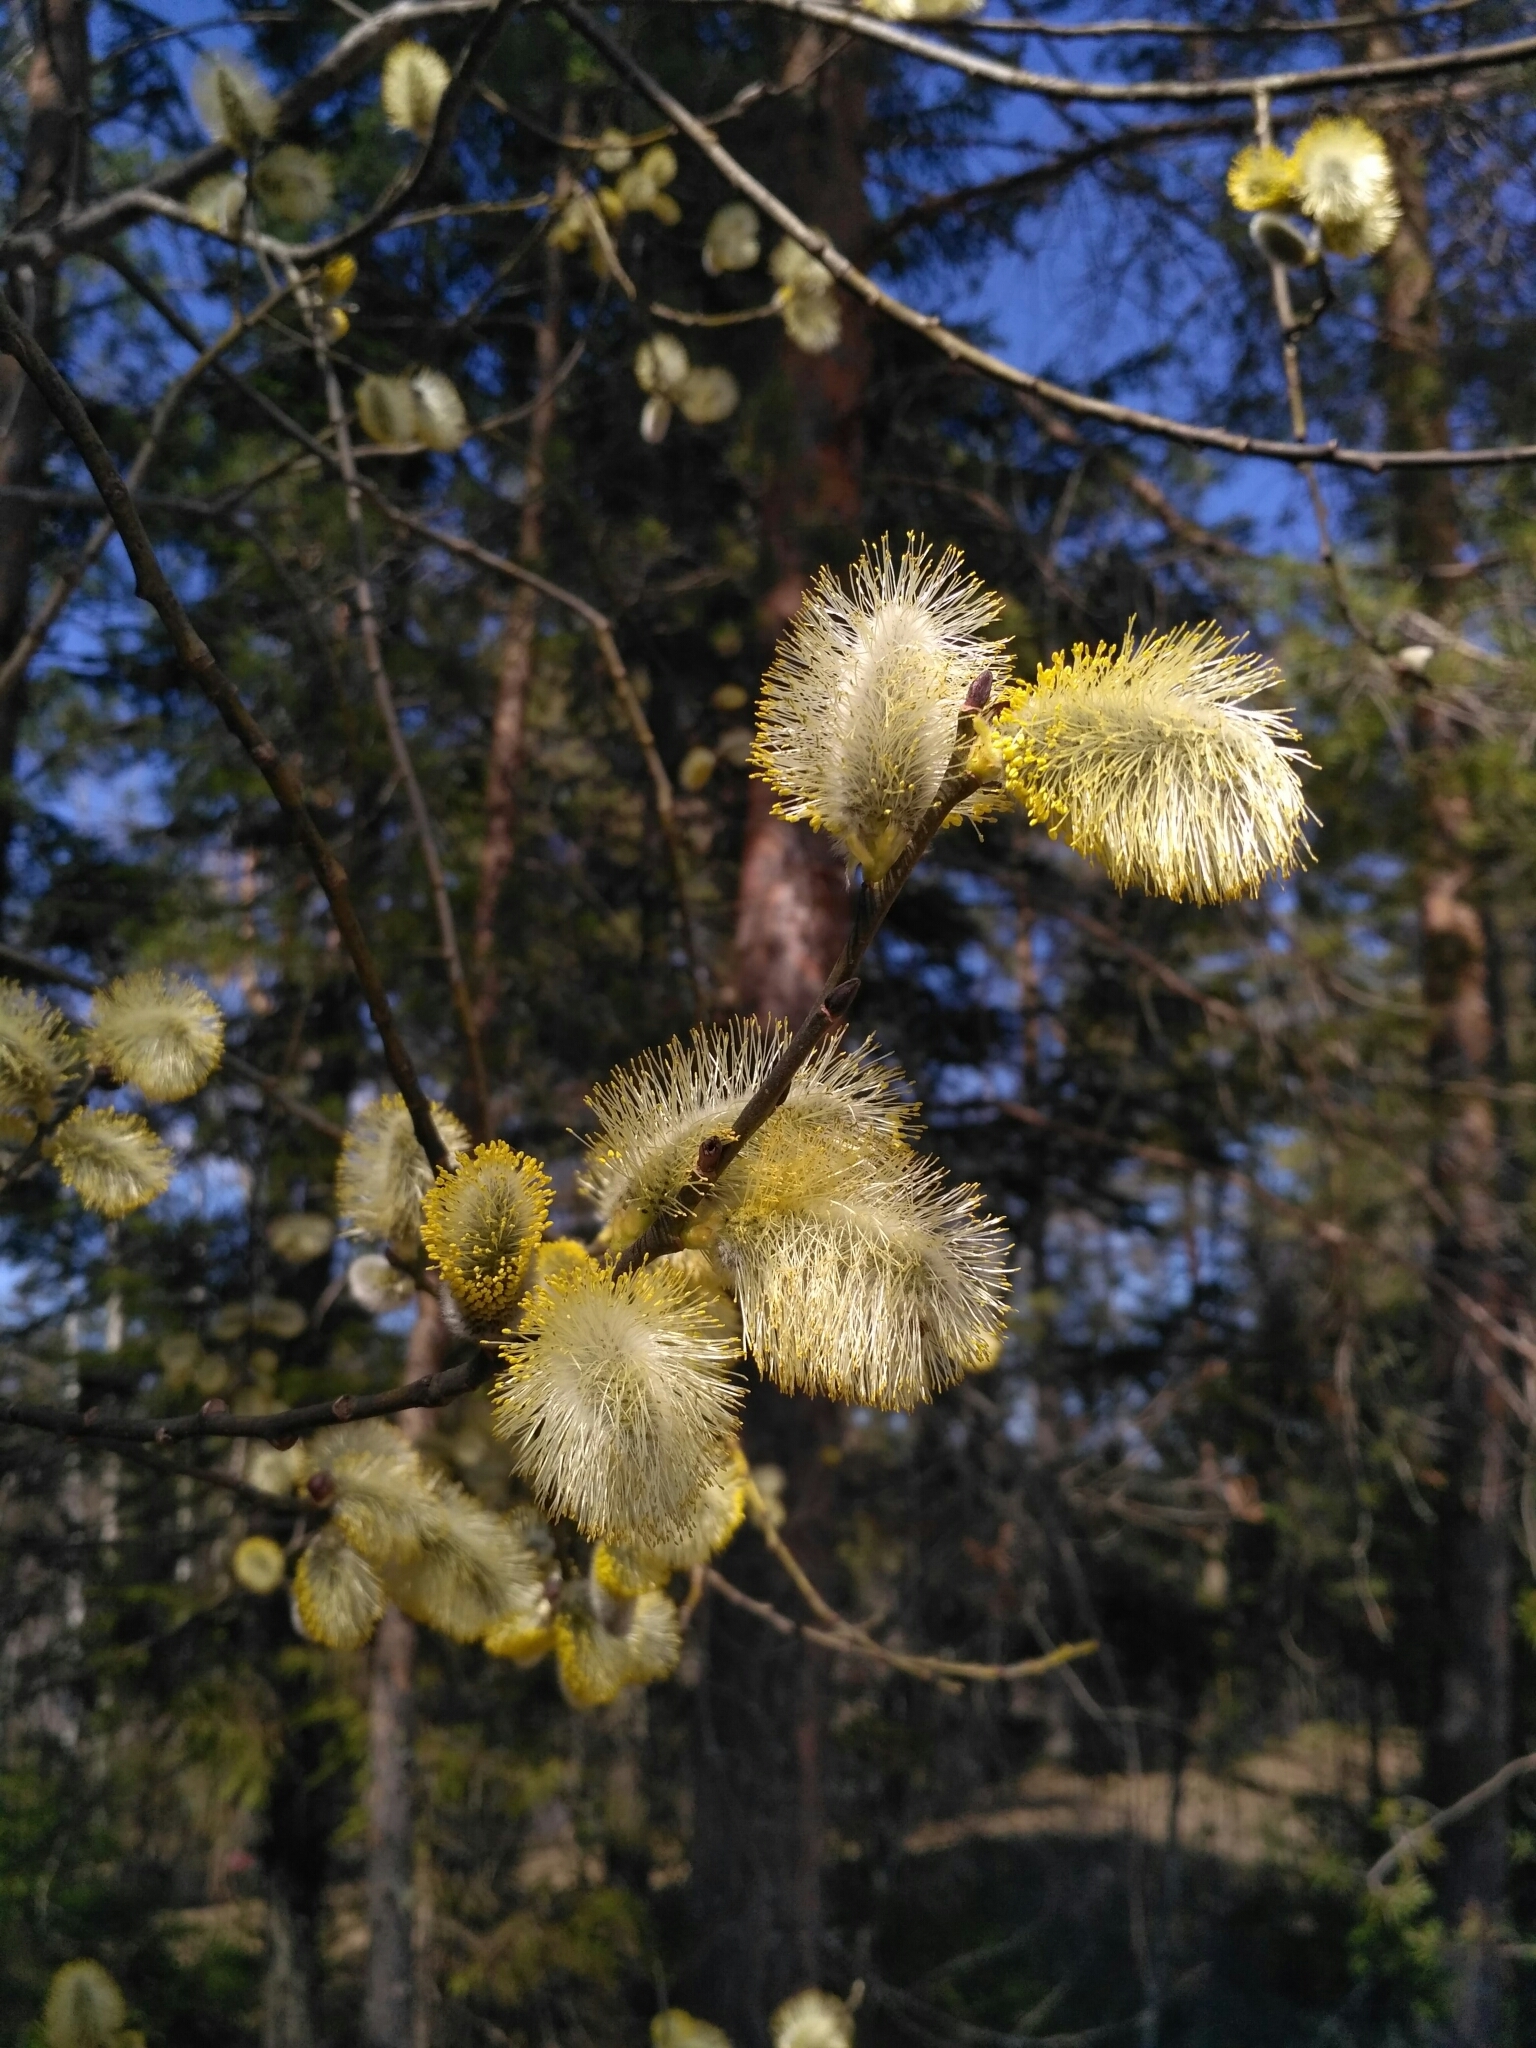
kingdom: Plantae
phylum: Tracheophyta
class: Magnoliopsida
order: Malpighiales
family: Salicaceae
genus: Salix
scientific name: Salix caprea
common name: Goat willow
